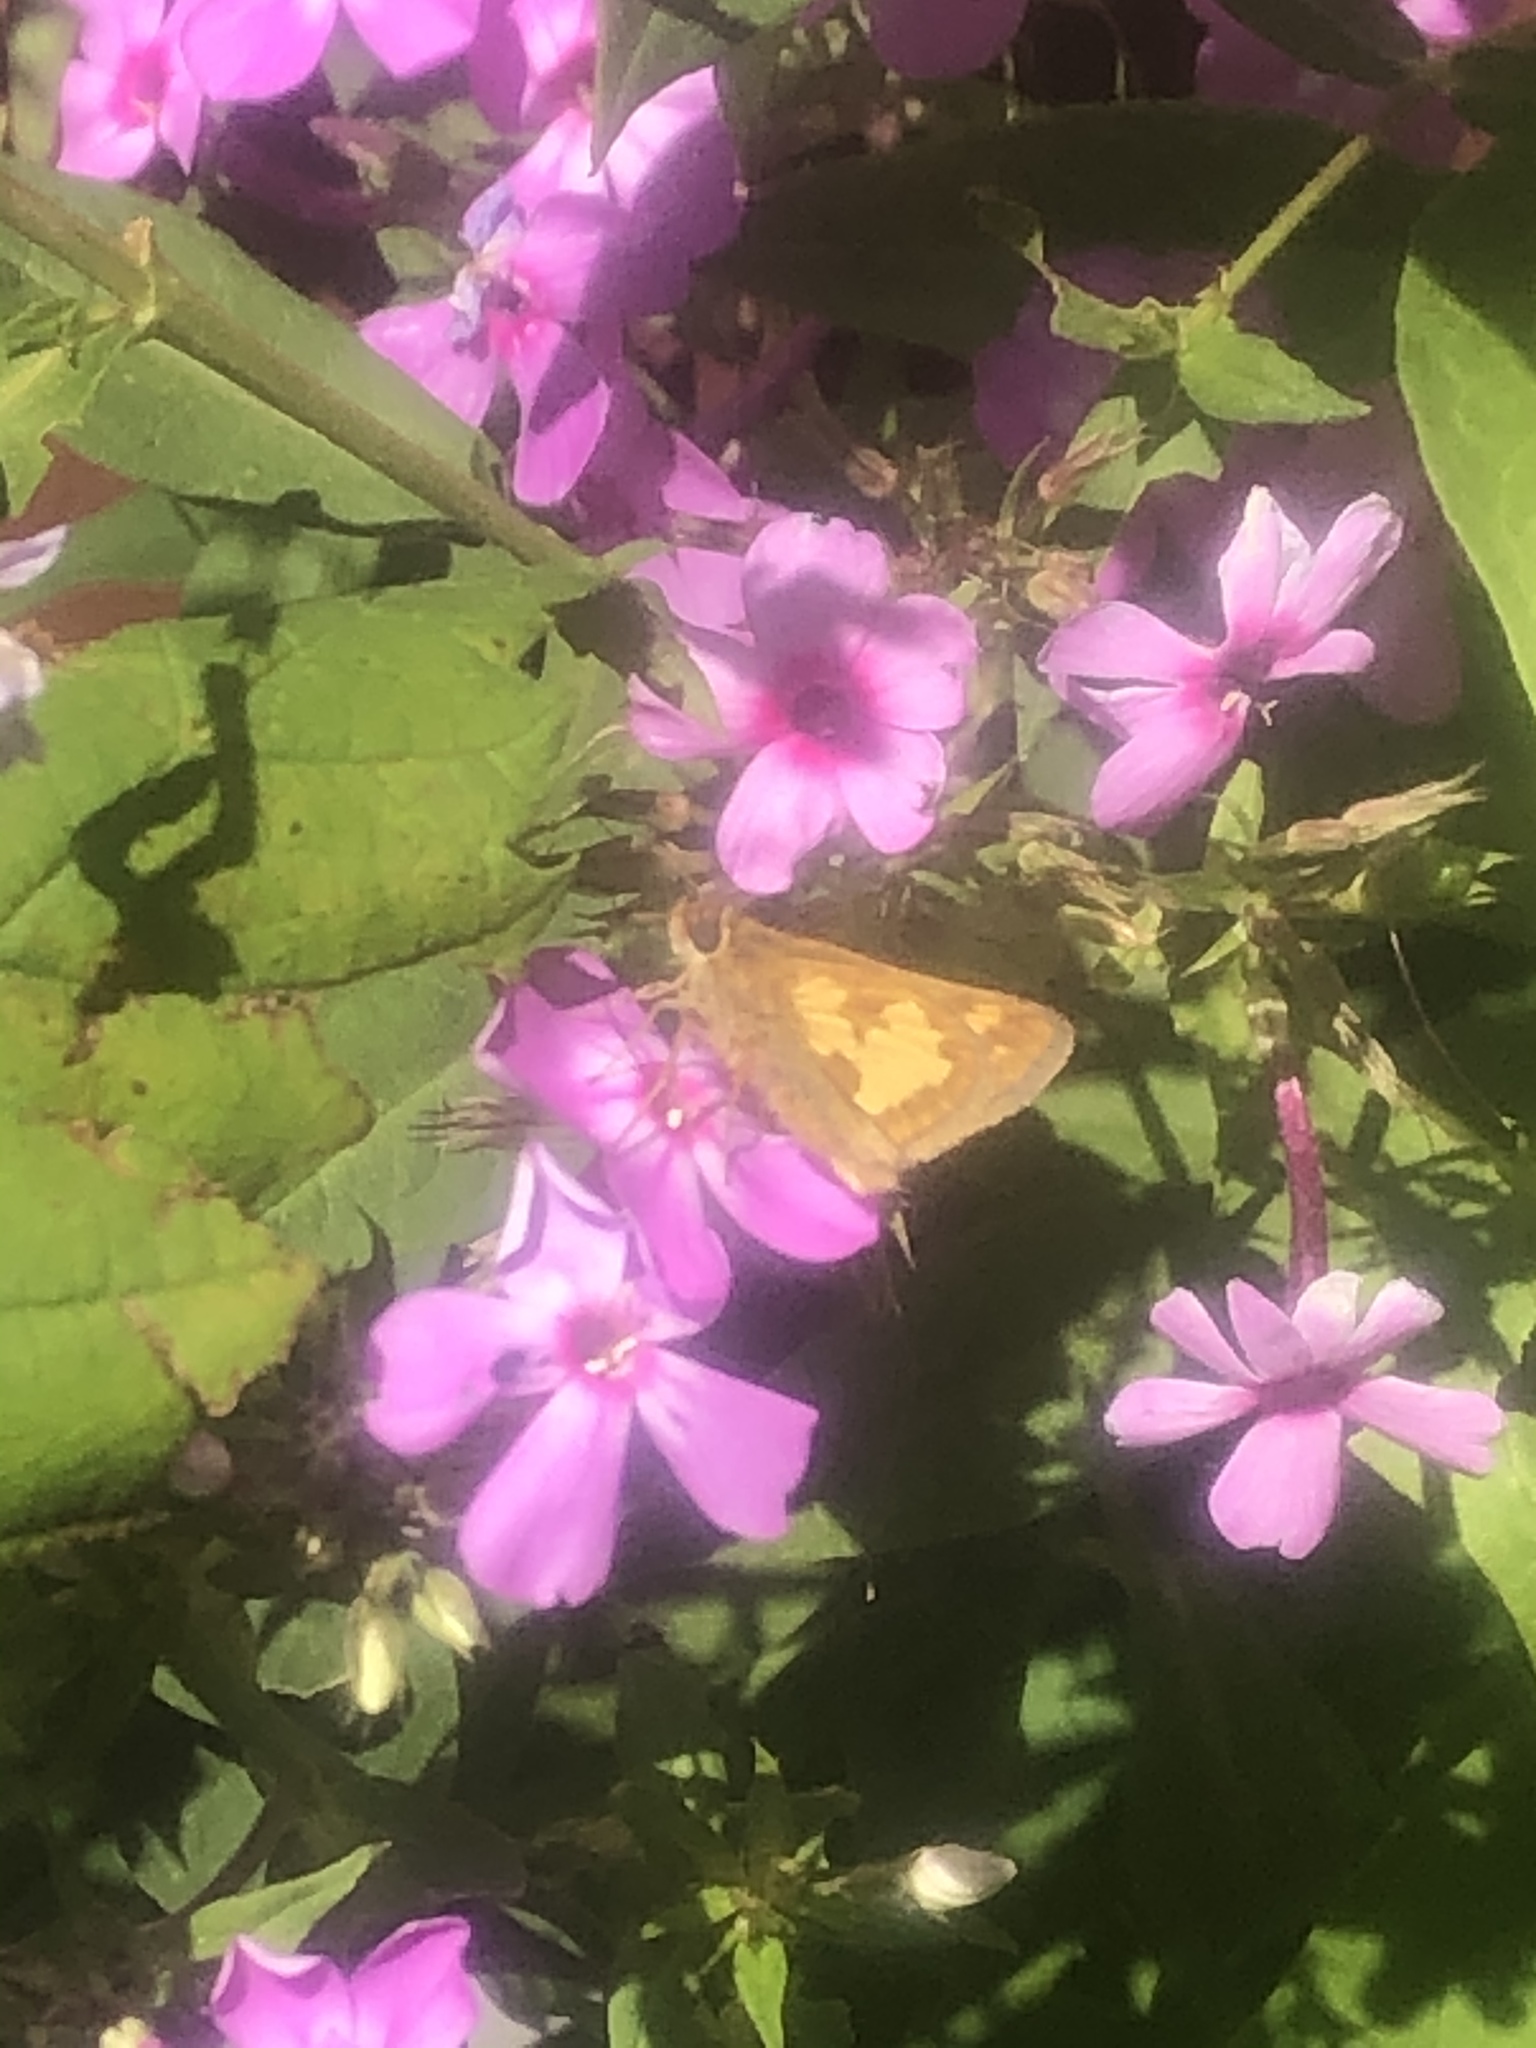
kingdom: Animalia
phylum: Arthropoda
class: Insecta
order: Lepidoptera
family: Hesperiidae
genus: Polites
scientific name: Polites coras
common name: Peck's skipper
